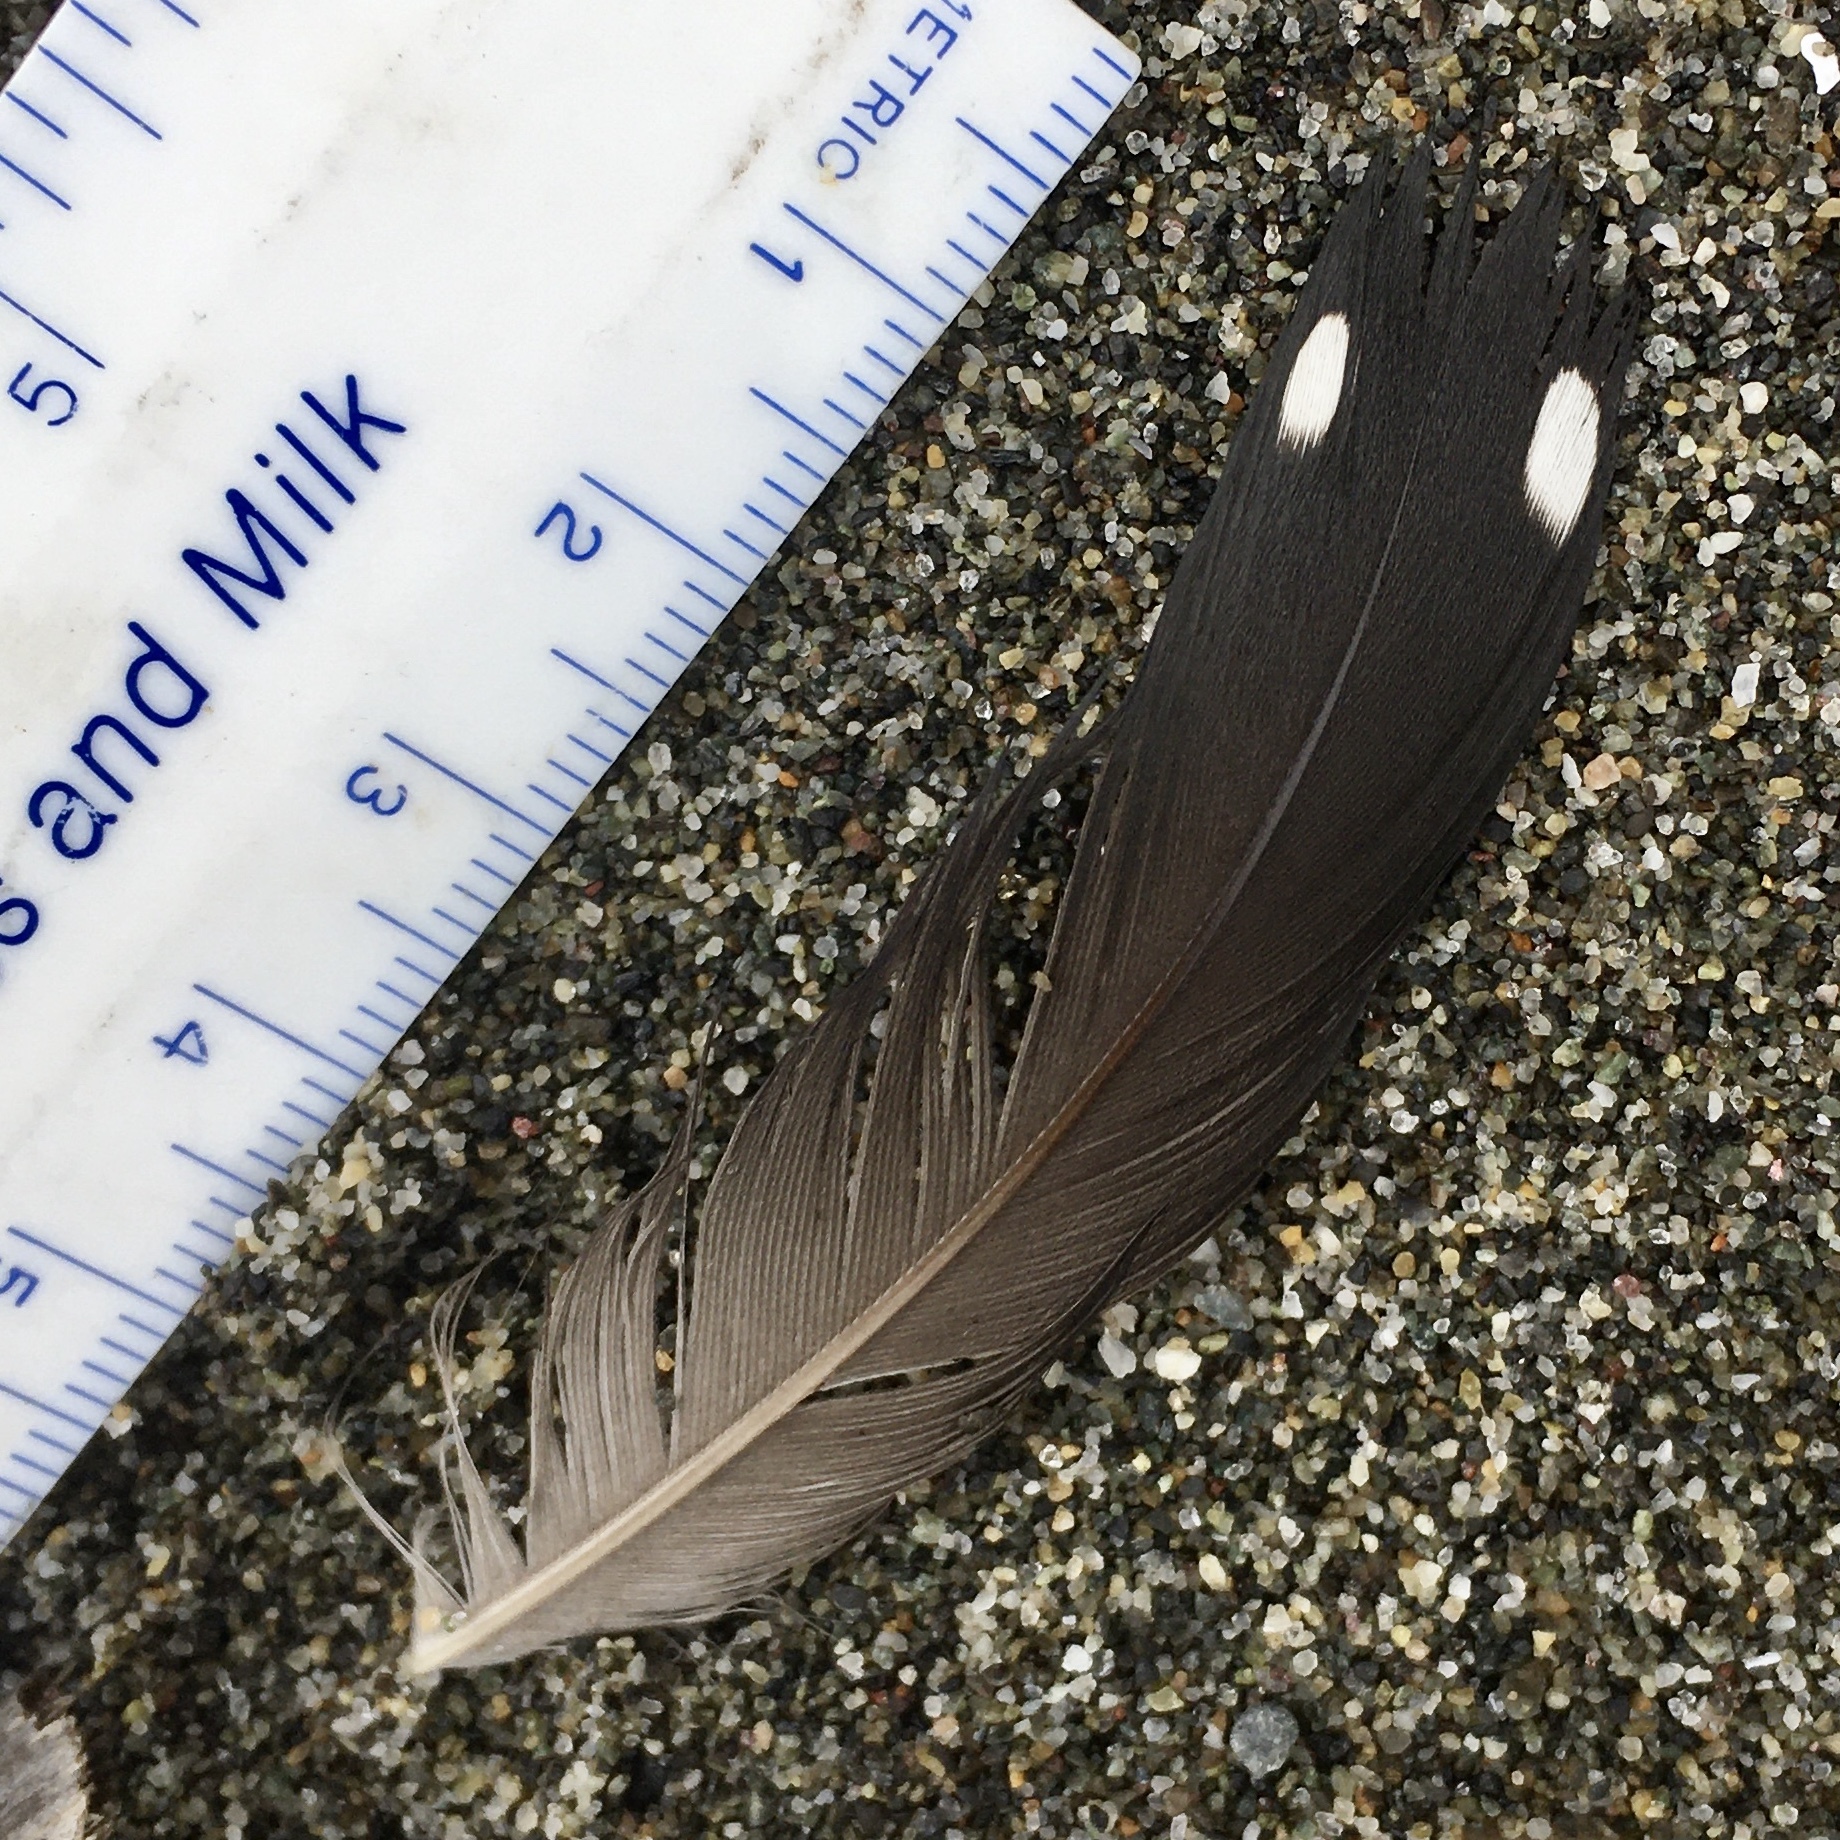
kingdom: Animalia
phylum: Chordata
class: Aves
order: Gaviiformes
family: Gaviidae
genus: Gavia
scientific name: Gavia immer
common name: Common loon
